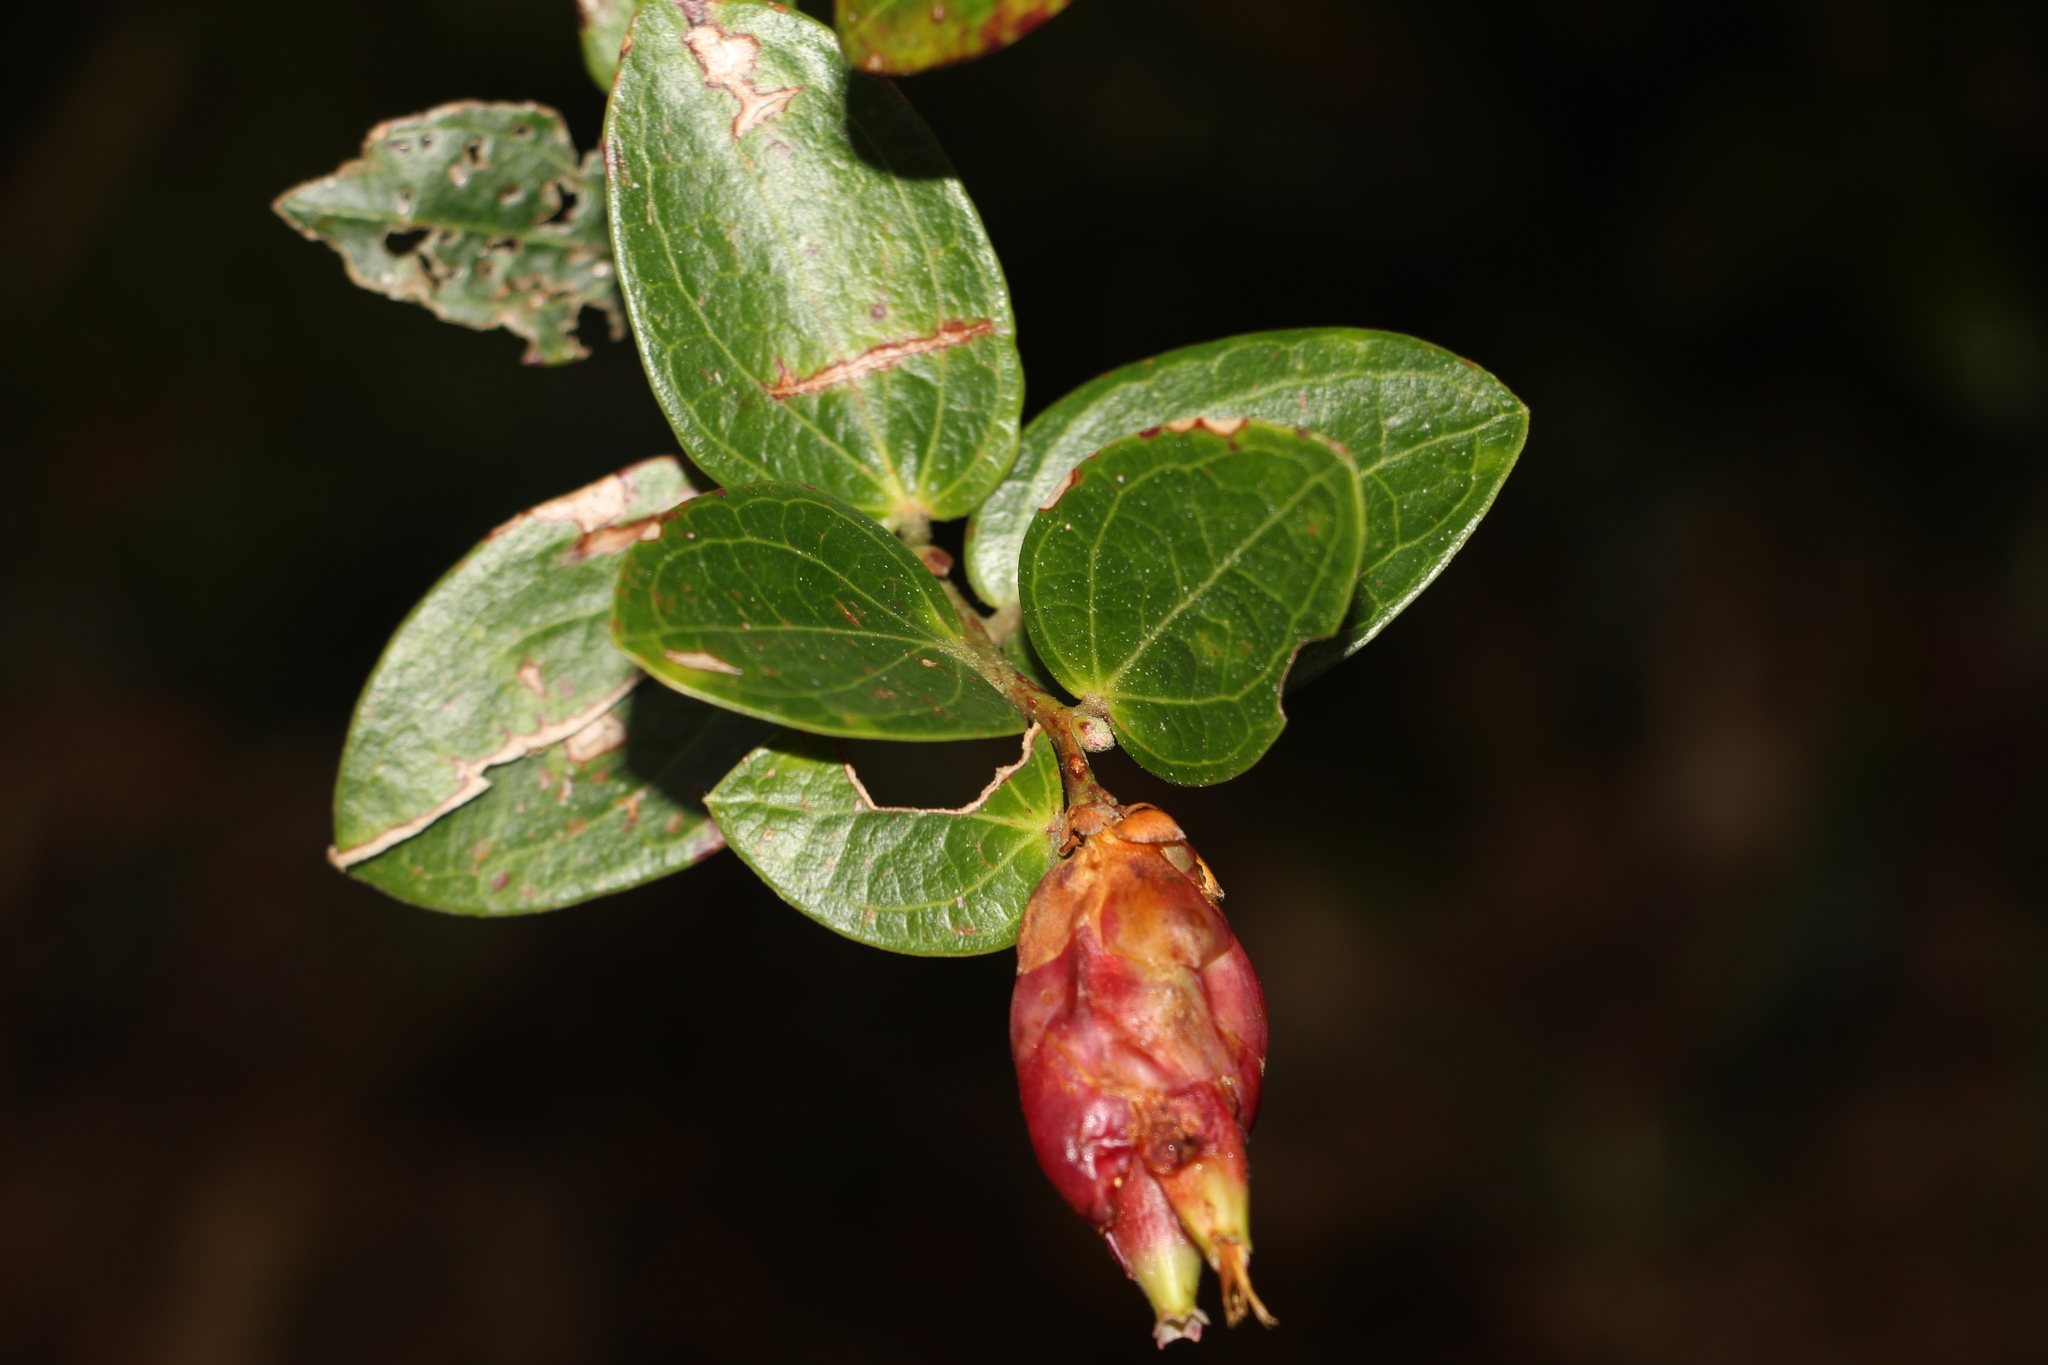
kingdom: Plantae
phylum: Tracheophyta
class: Magnoliopsida
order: Ericales
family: Ericaceae
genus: Cavendishia
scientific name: Cavendishia bracteata
